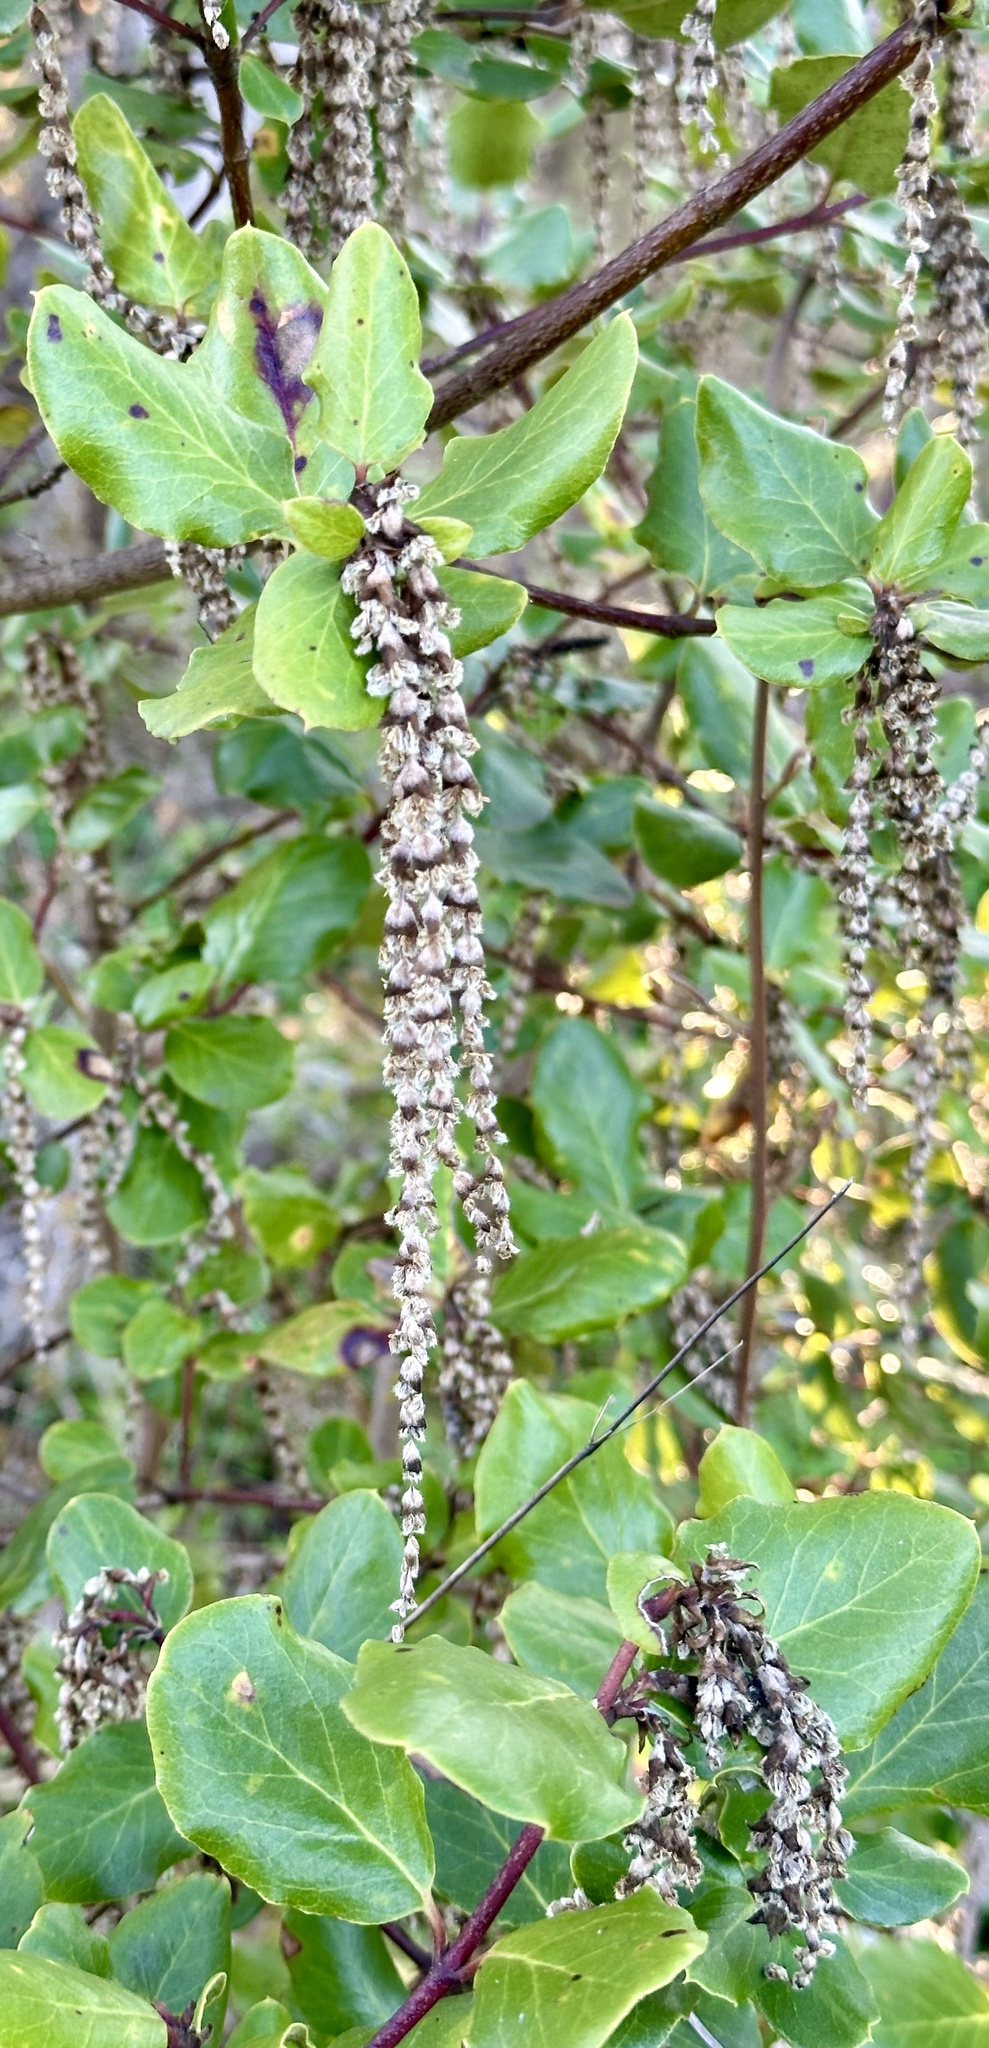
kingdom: Plantae
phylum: Tracheophyta
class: Magnoliopsida
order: Garryales
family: Garryaceae
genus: Garrya
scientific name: Garrya elliptica
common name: Silk-tassel
